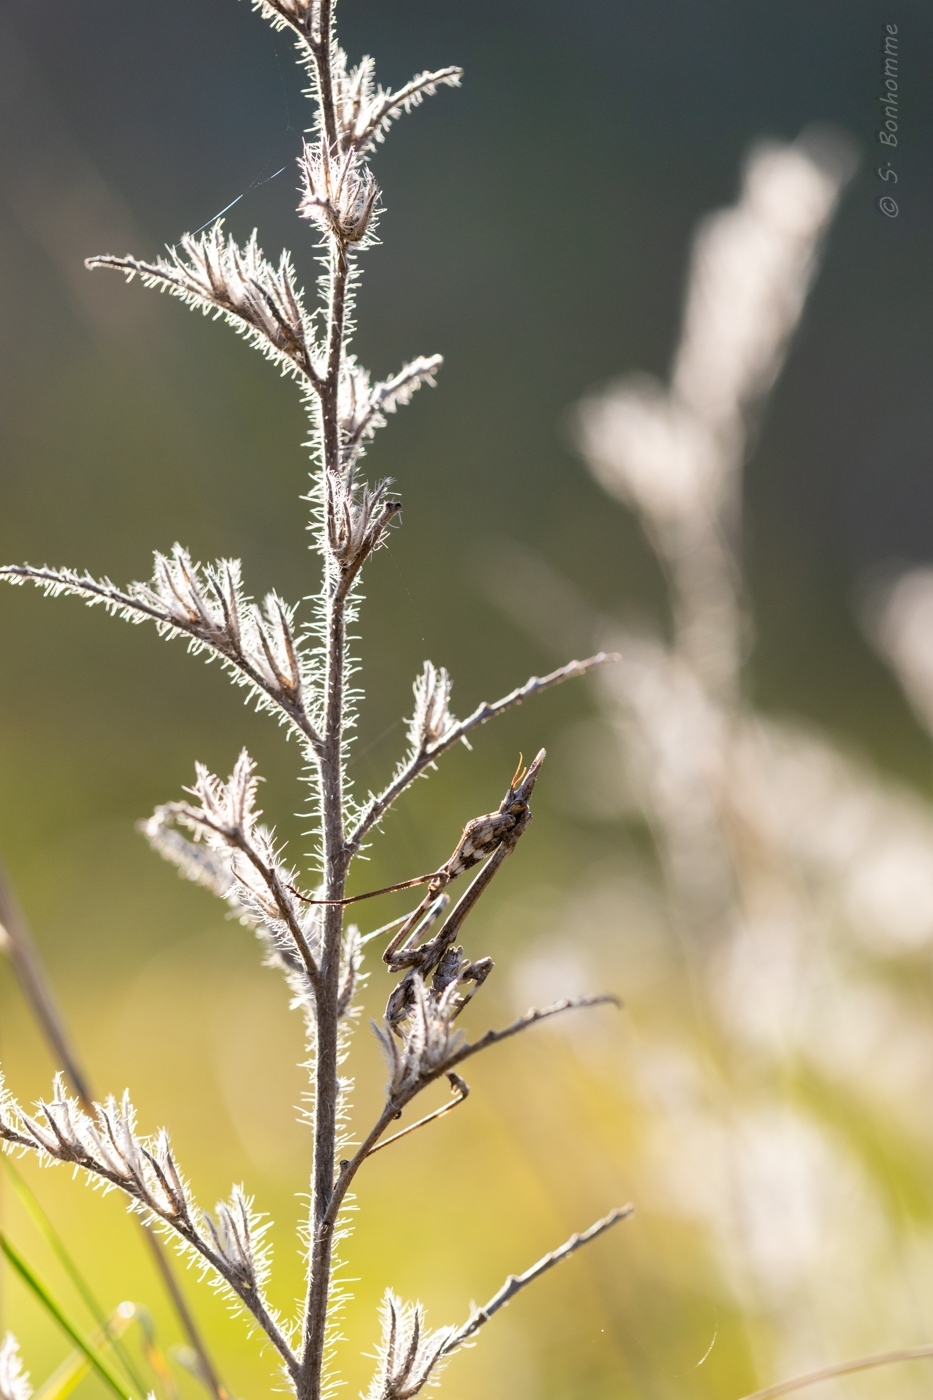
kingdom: Animalia
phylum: Arthropoda
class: Insecta
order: Mantodea
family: Empusidae
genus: Empusa
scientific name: Empusa pennata
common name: Conehead mantis
